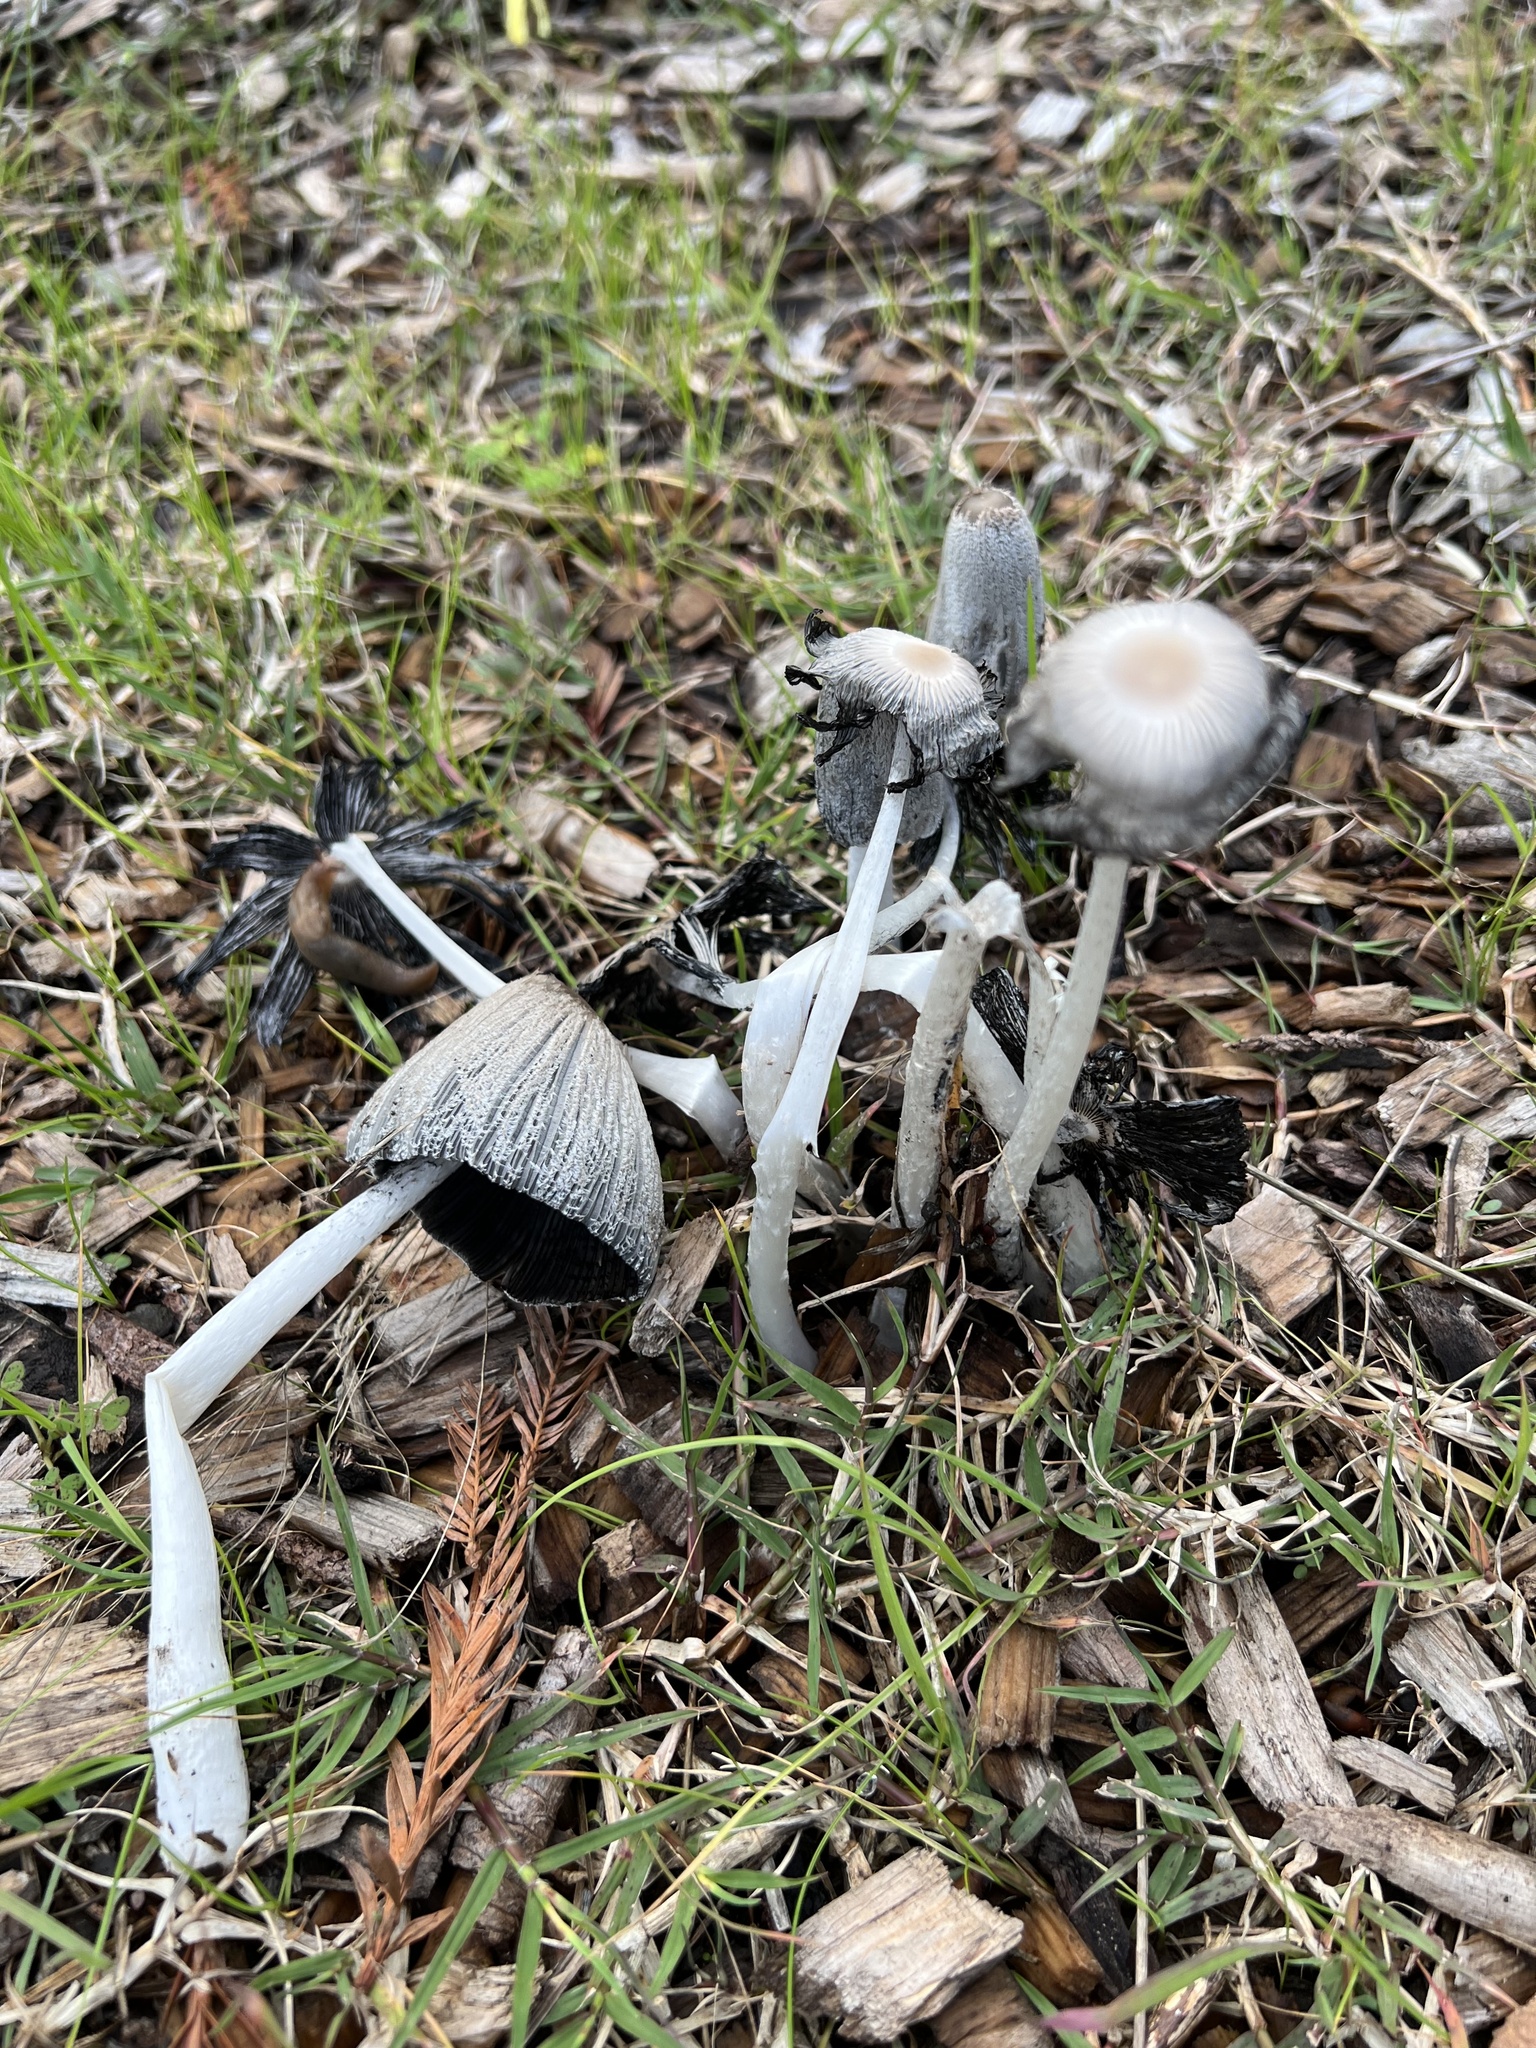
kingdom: Fungi
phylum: Basidiomycota
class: Agaricomycetes
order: Agaricales
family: Psathyrellaceae
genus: Coprinopsis
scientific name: Coprinopsis lagopus
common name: Hare'sfoot inkcap
